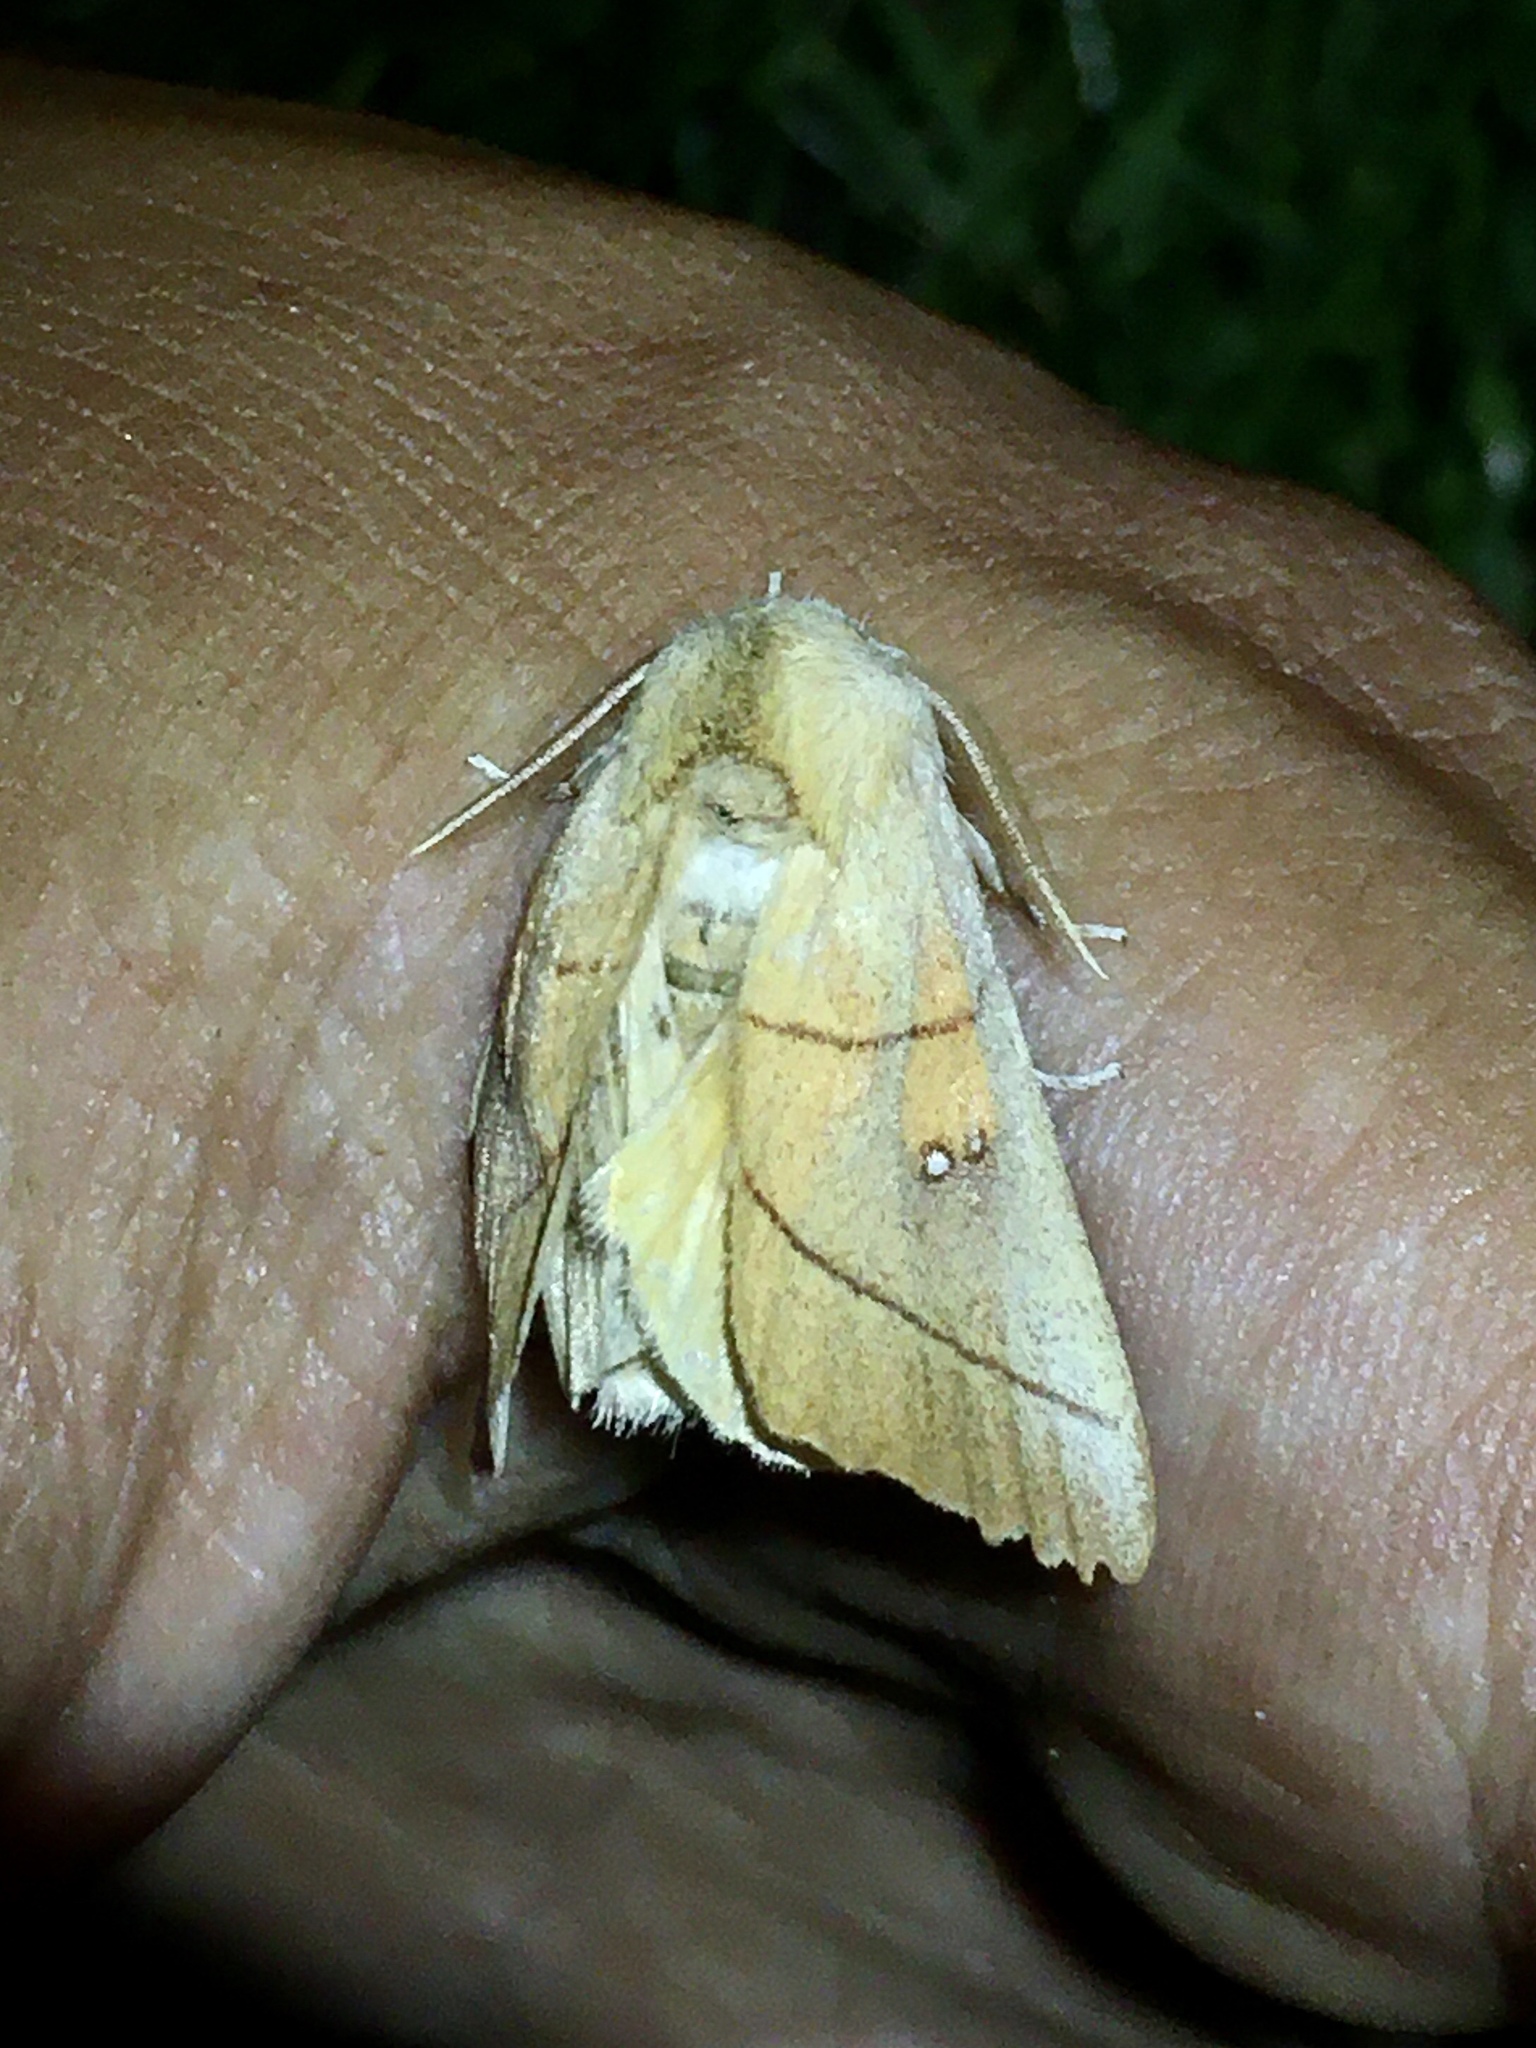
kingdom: Animalia
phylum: Arthropoda
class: Insecta
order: Lepidoptera
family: Notodontidae
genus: Nadata
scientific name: Nadata gibbosa
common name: White-dotted prominent
